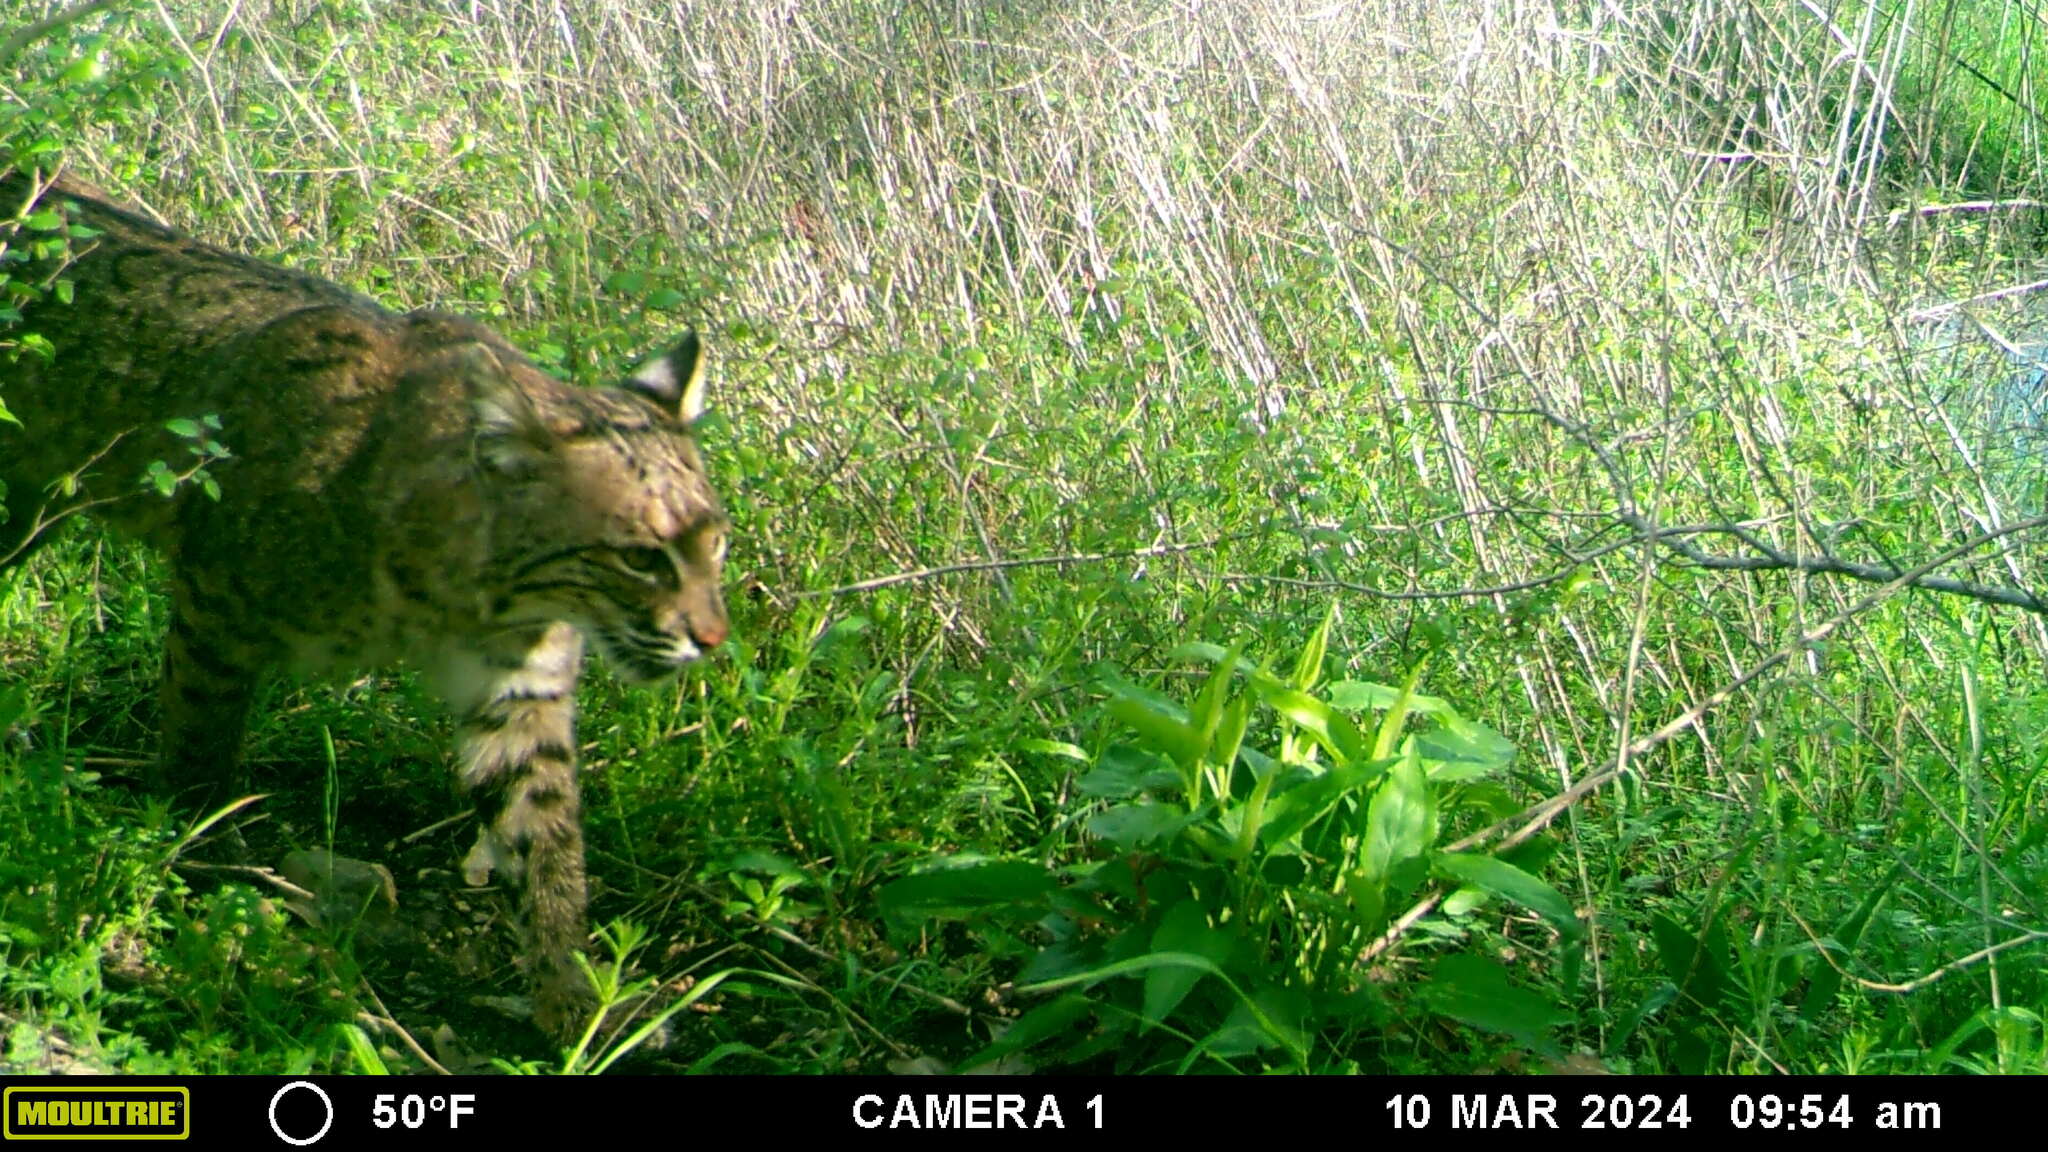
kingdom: Animalia
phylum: Chordata
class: Mammalia
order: Carnivora
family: Felidae
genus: Lynx
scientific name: Lynx rufus
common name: Bobcat
